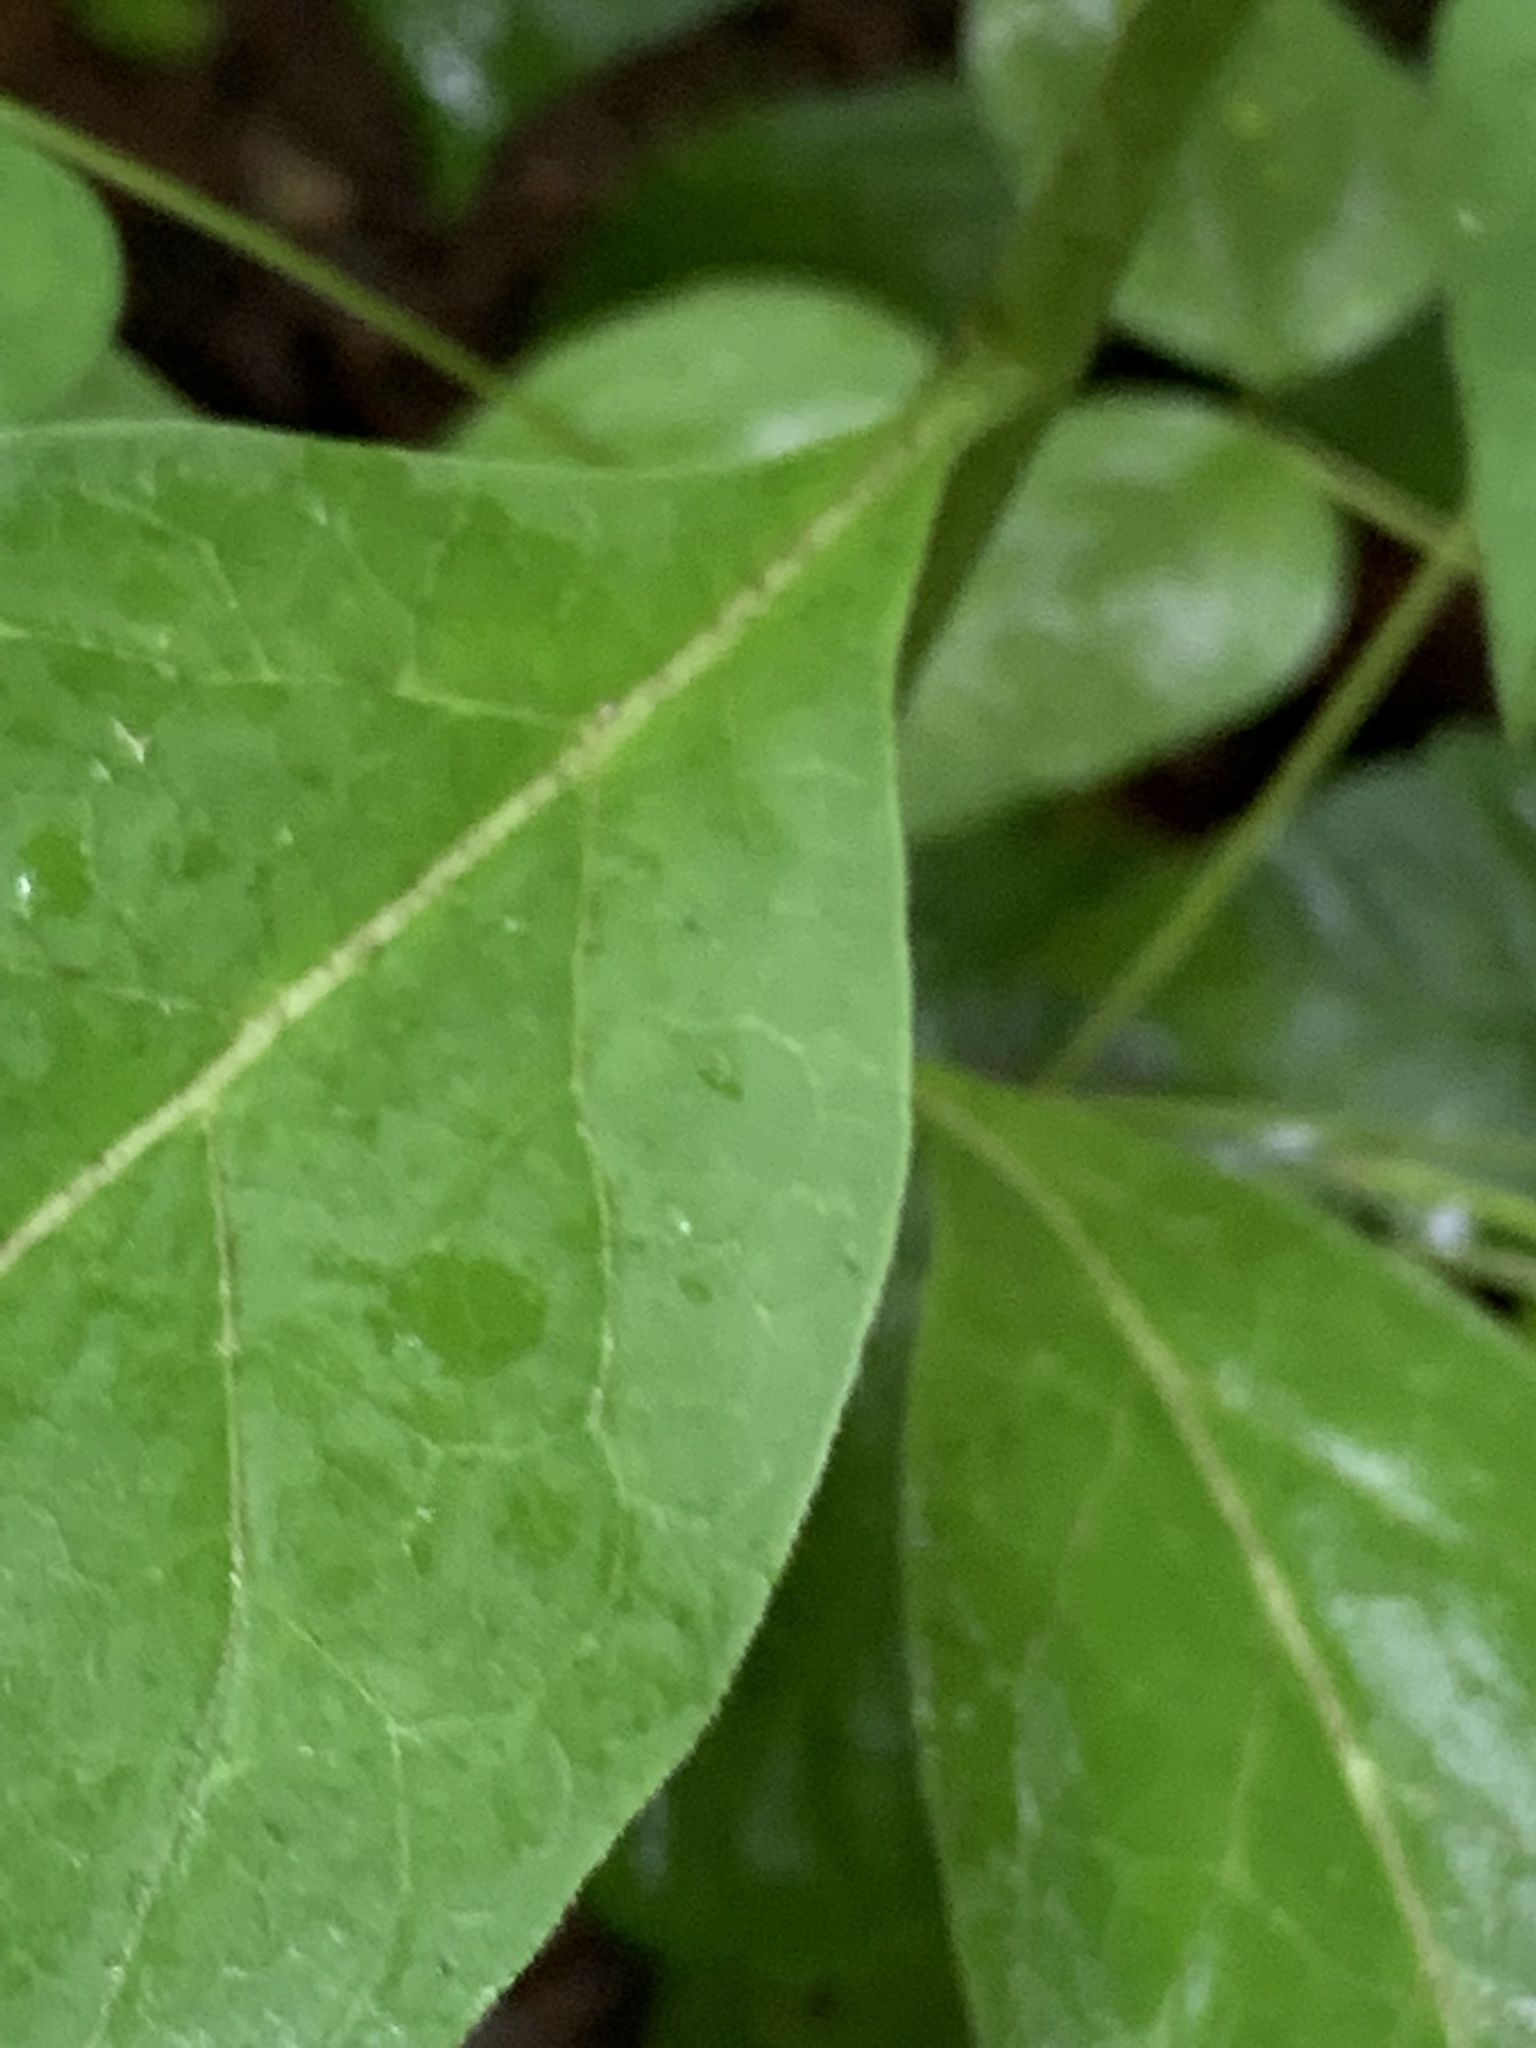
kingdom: Plantae
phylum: Tracheophyta
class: Magnoliopsida
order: Gentianales
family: Apocynaceae
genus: Asclepias
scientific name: Asclepias exaltata
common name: Poke milkweed
